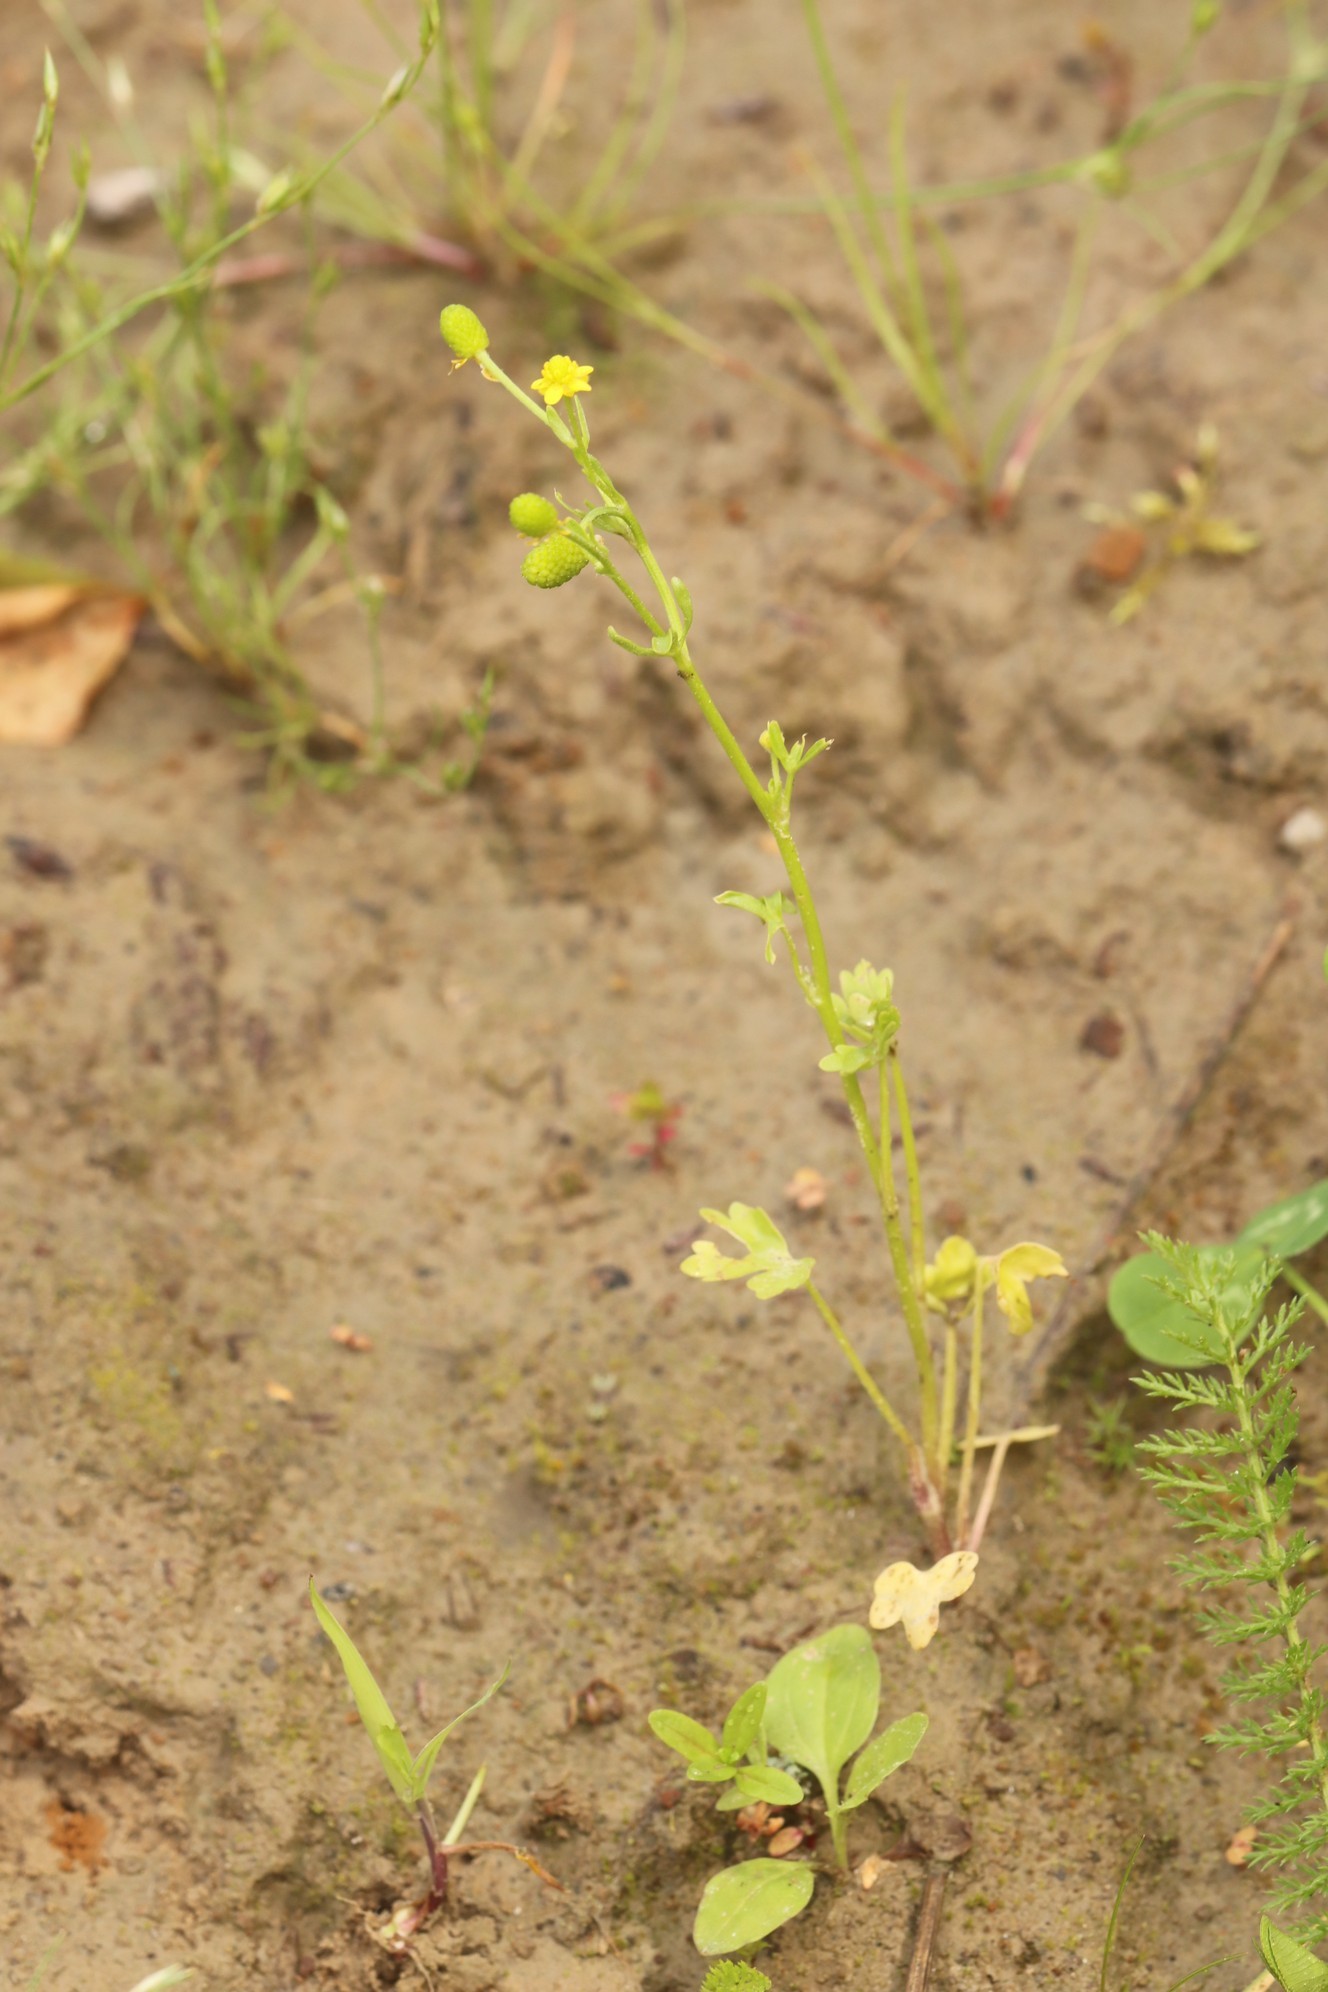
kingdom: Plantae
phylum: Tracheophyta
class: Magnoliopsida
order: Ranunculales
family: Ranunculaceae
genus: Ranunculus
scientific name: Ranunculus sceleratus
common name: Celery-leaved buttercup
